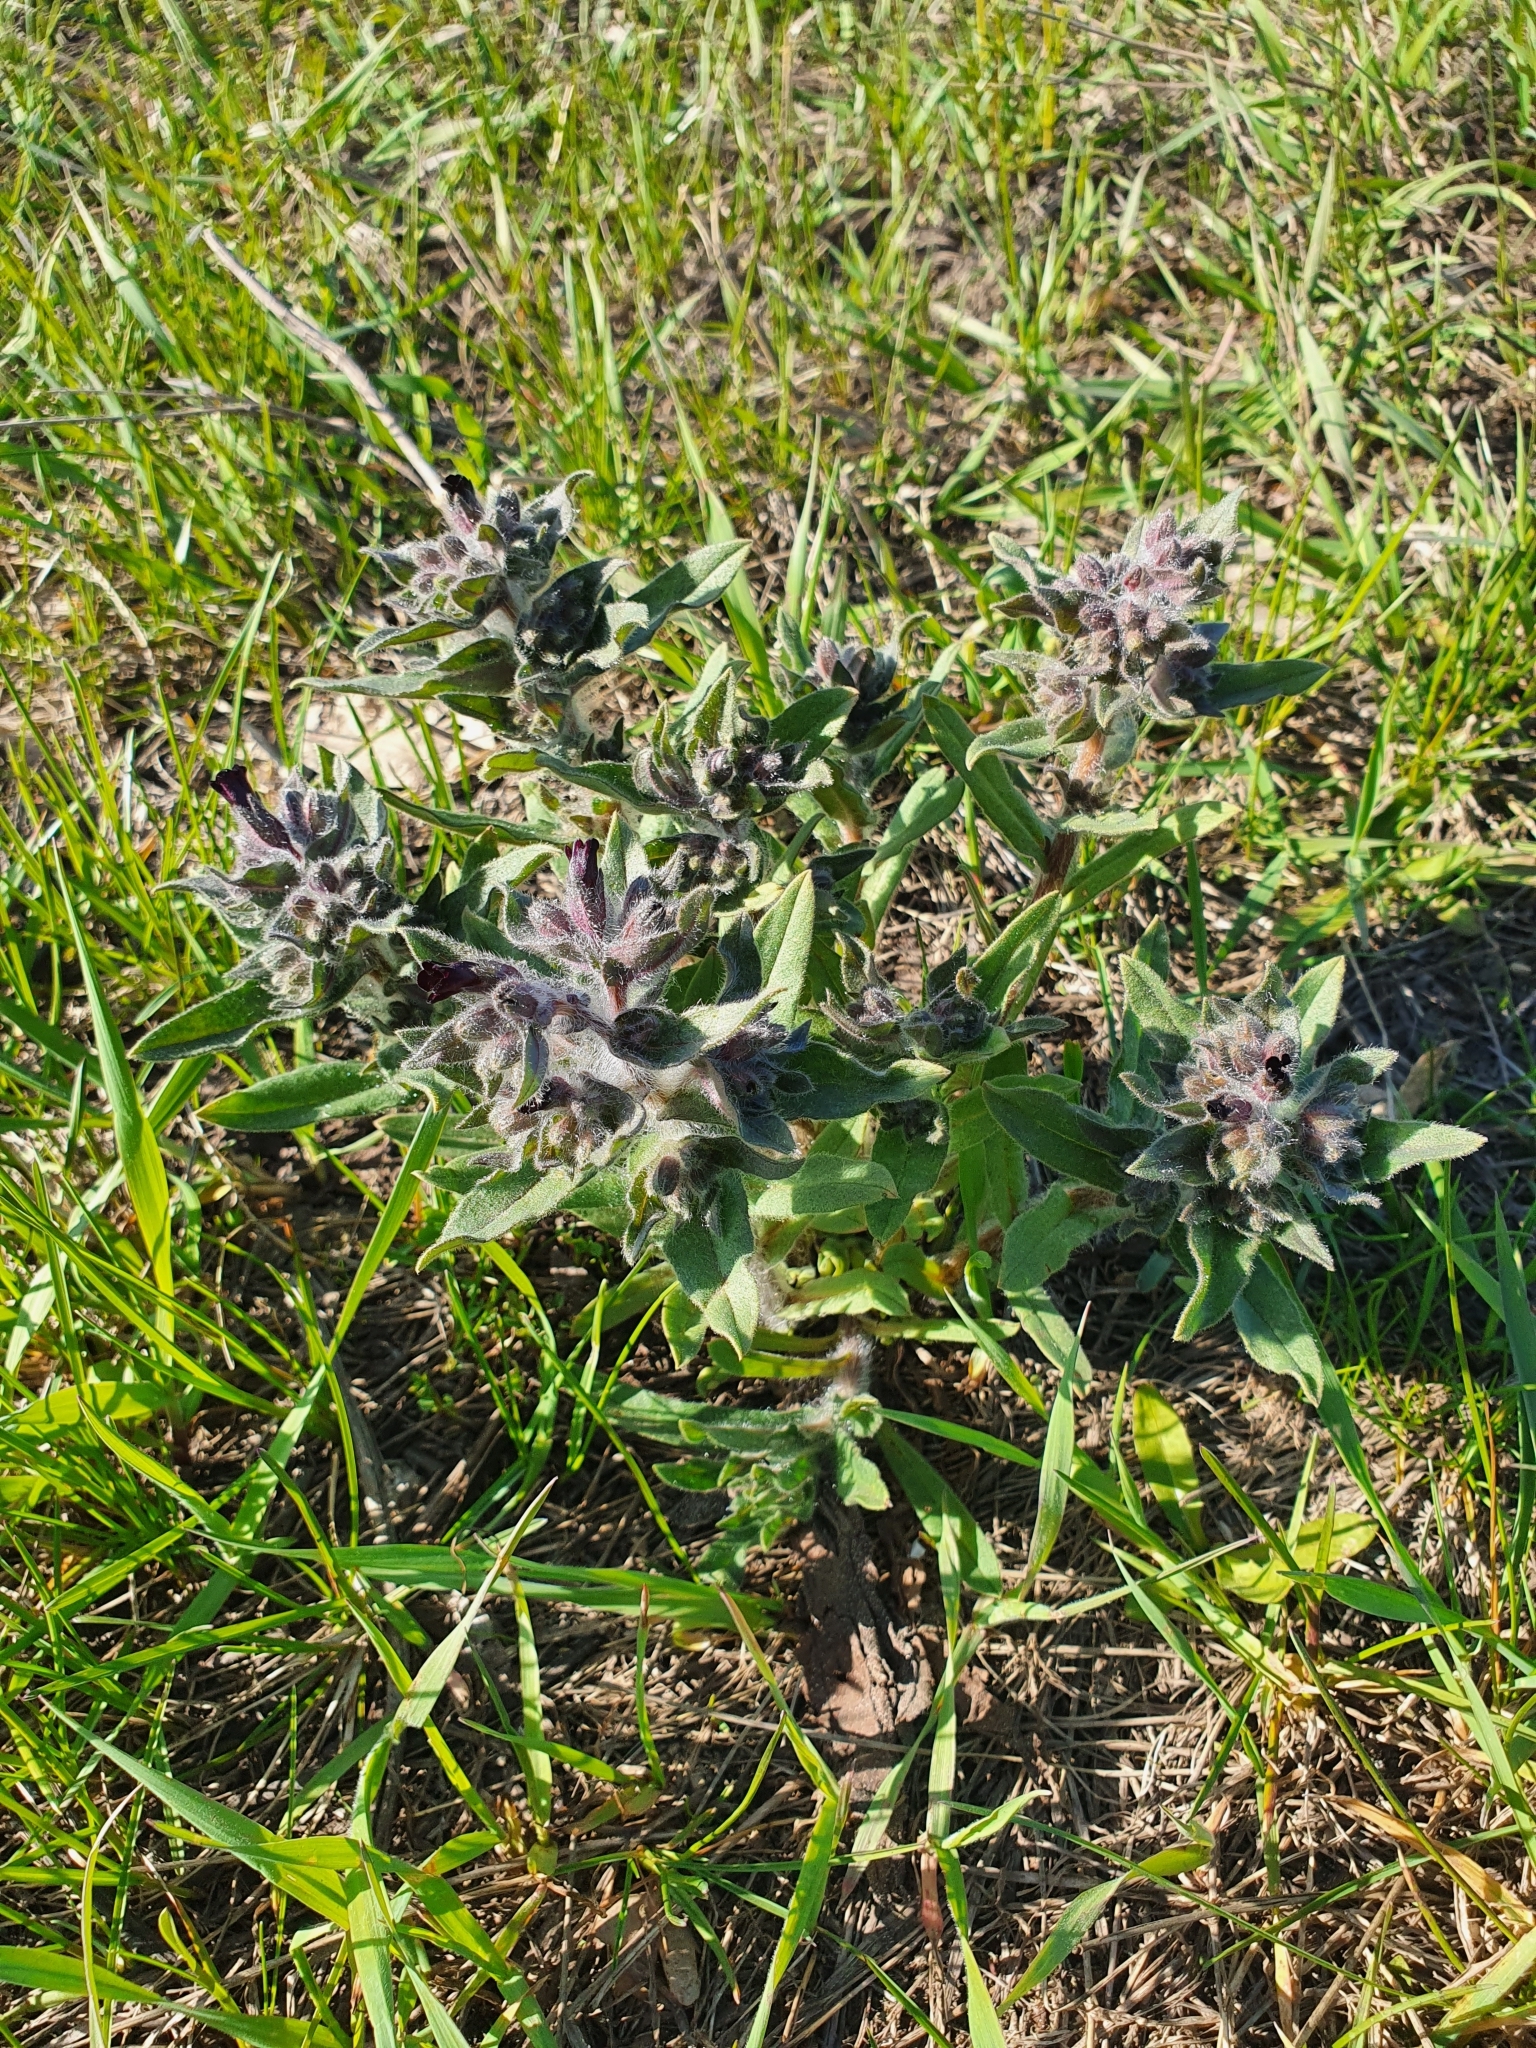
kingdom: Plantae
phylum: Tracheophyta
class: Magnoliopsida
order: Boraginales
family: Boraginaceae
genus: Nonea
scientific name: Nonea pulla
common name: Brown nonea
